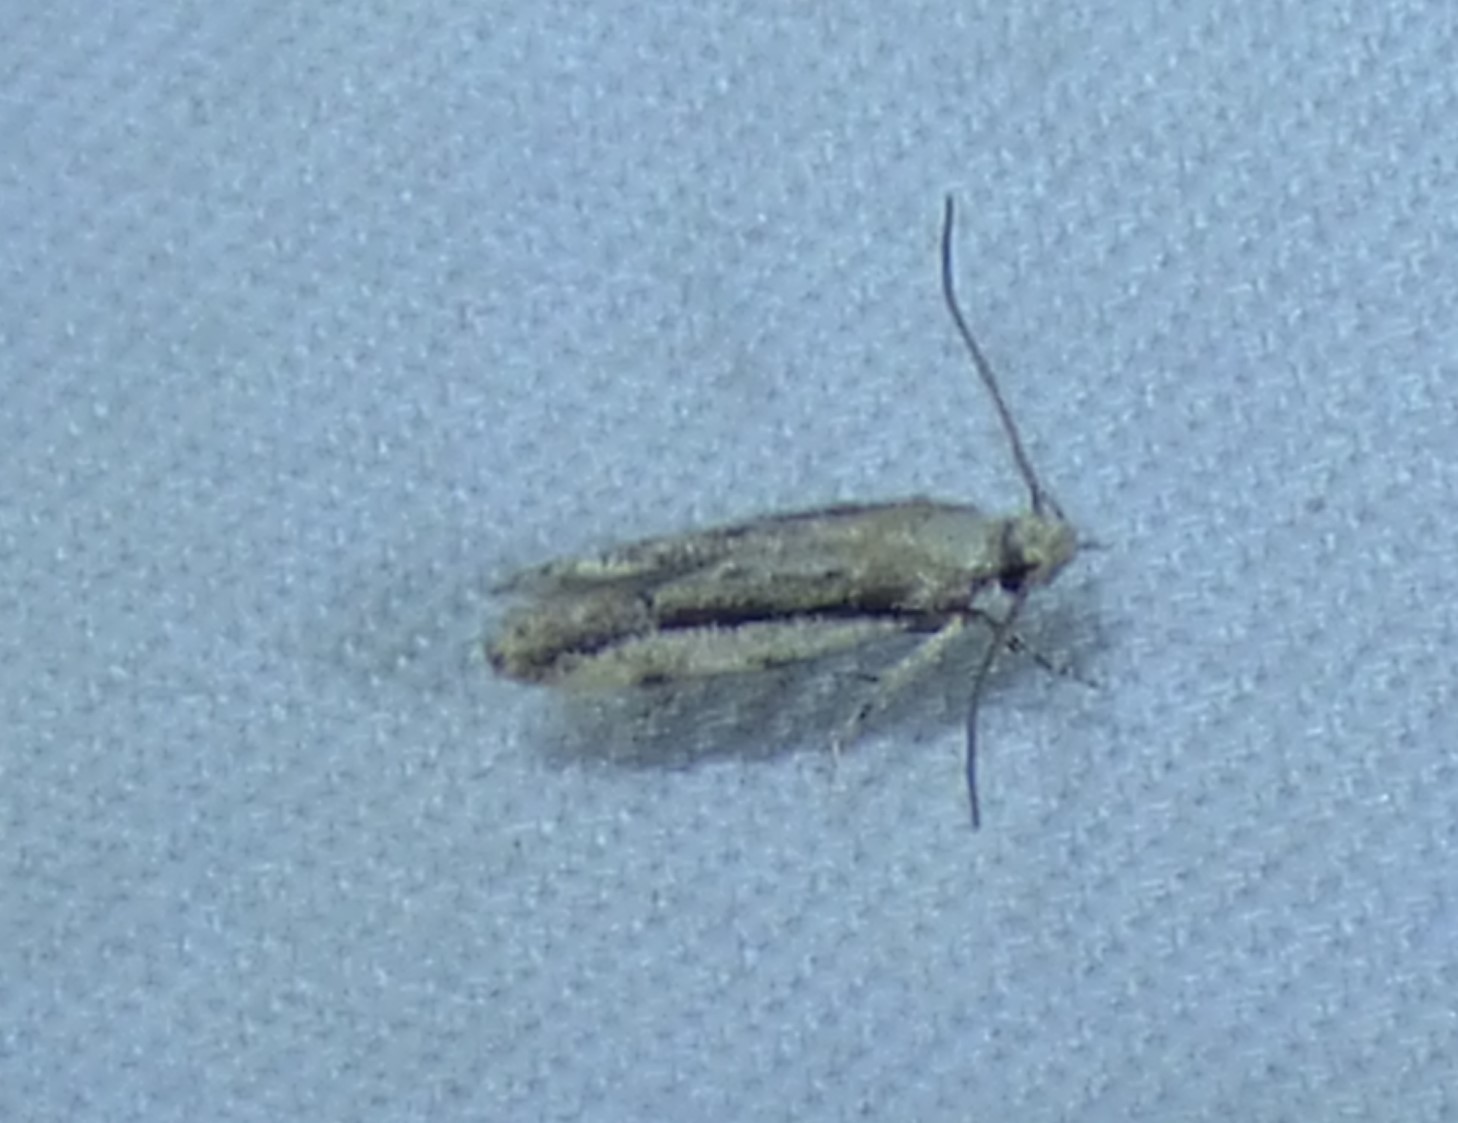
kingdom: Animalia
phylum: Arthropoda
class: Insecta
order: Lepidoptera
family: Gelechiidae
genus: Coleotechnites
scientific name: Coleotechnites albicostata
